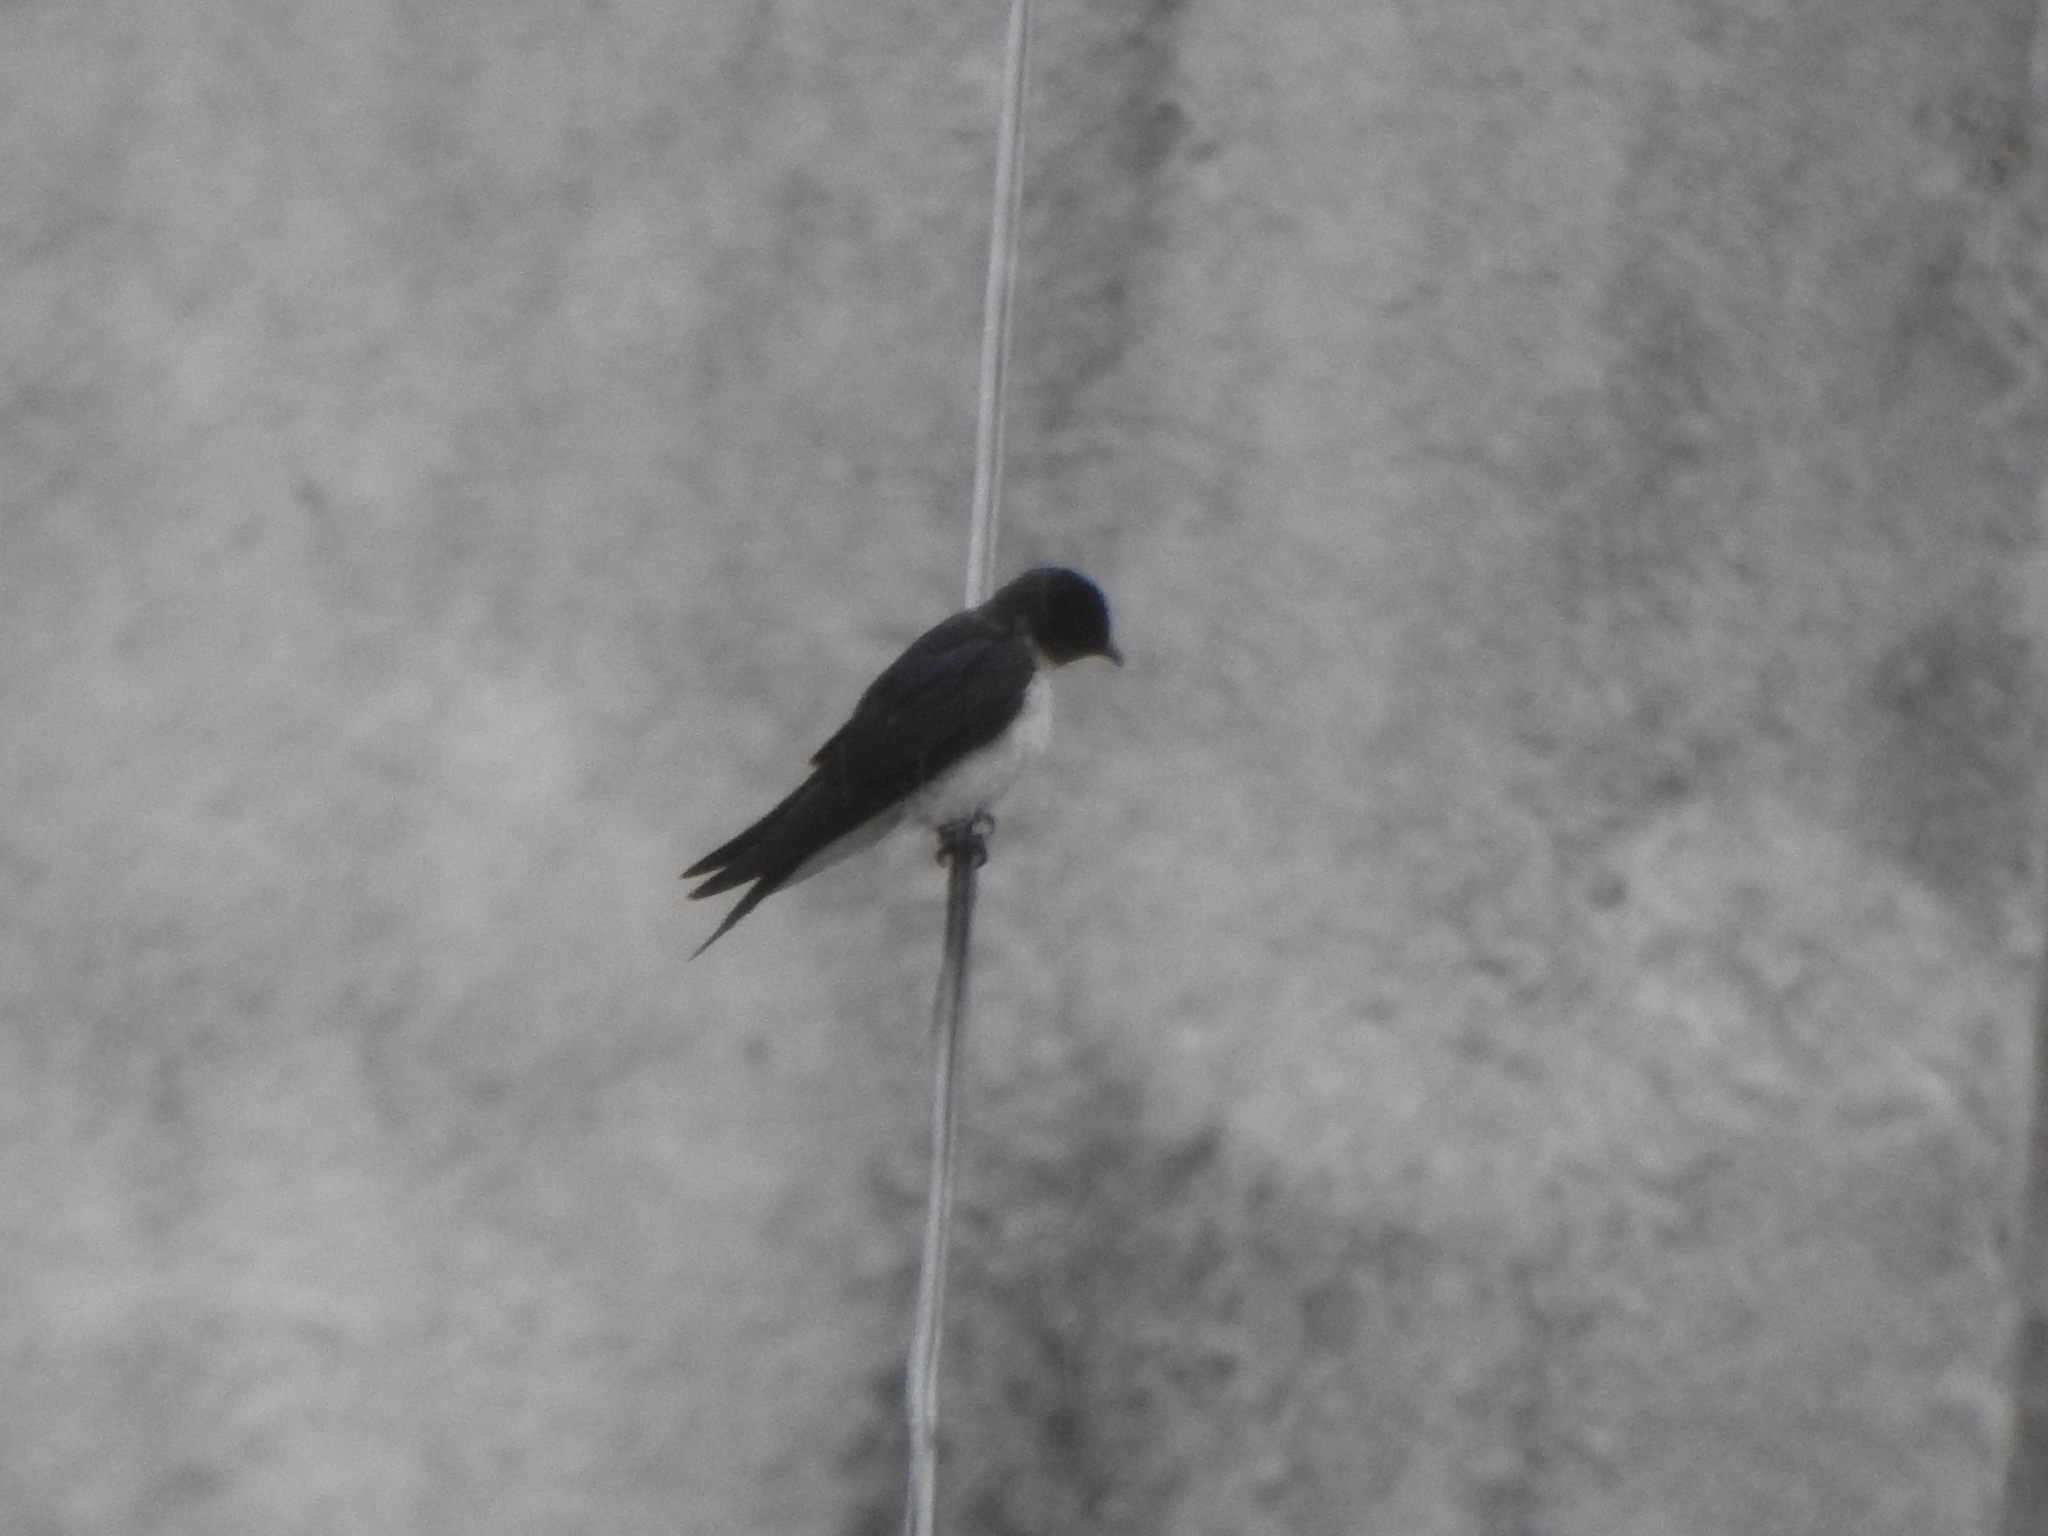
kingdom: Animalia
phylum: Chordata
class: Aves
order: Passeriformes
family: Hirundinidae
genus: Progne
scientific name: Progne chalybea
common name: Grey-breasted martin
